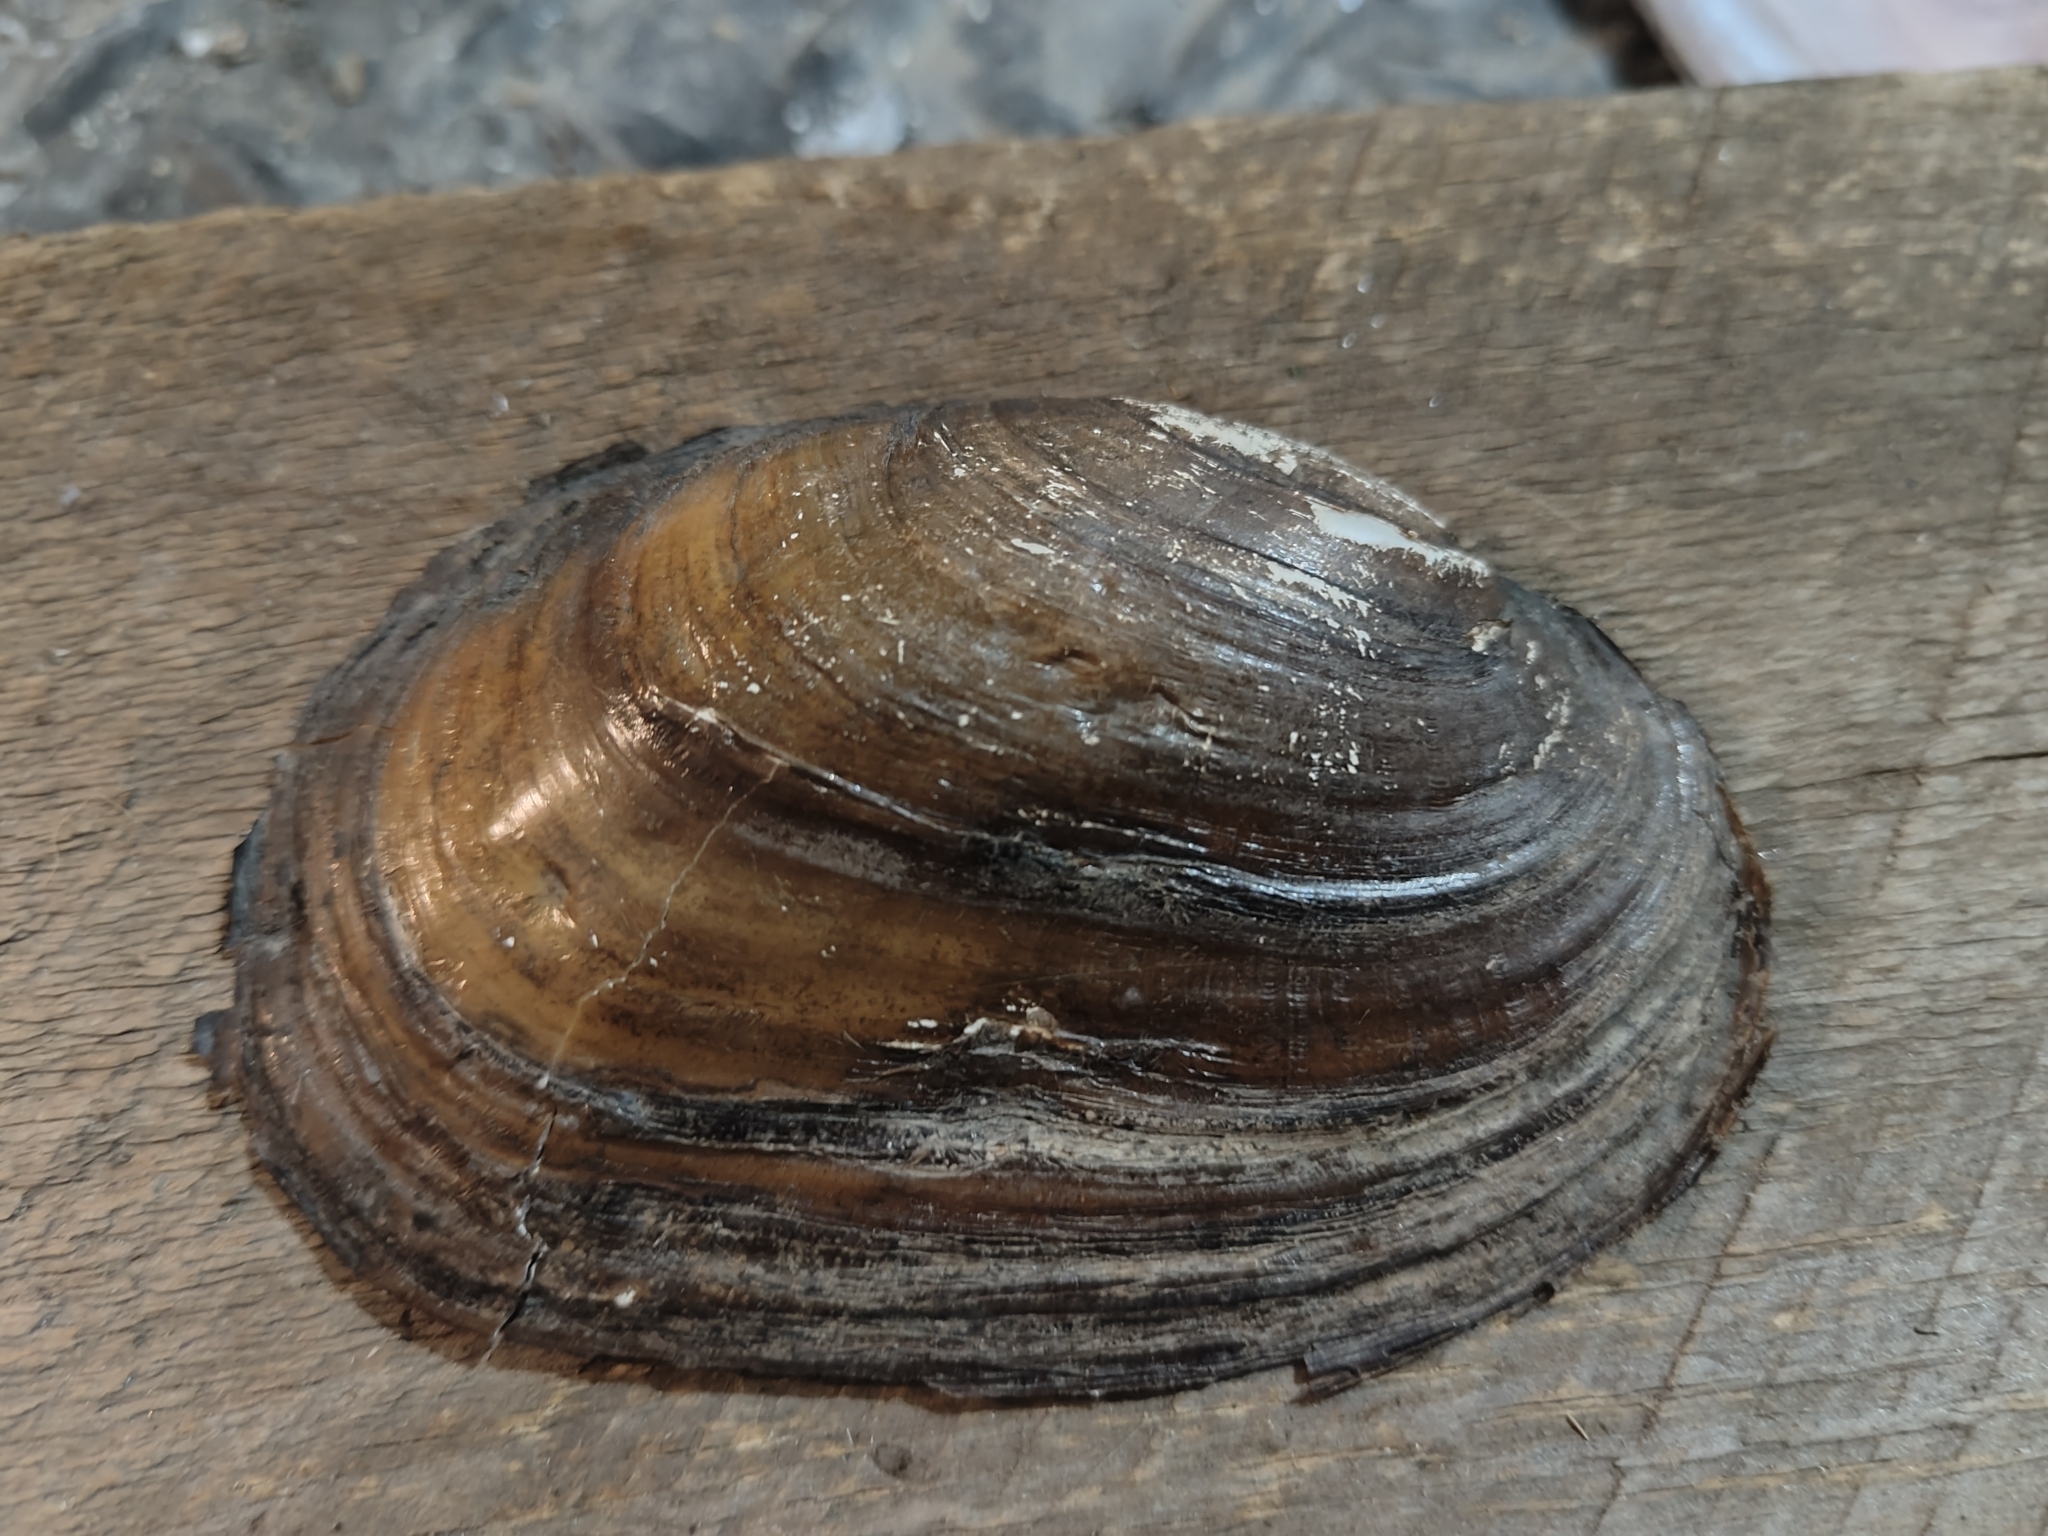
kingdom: Animalia
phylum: Mollusca
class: Bivalvia
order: Unionida
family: Unionidae
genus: Potamilus
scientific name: Potamilus fragilis
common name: Fragile papershell
